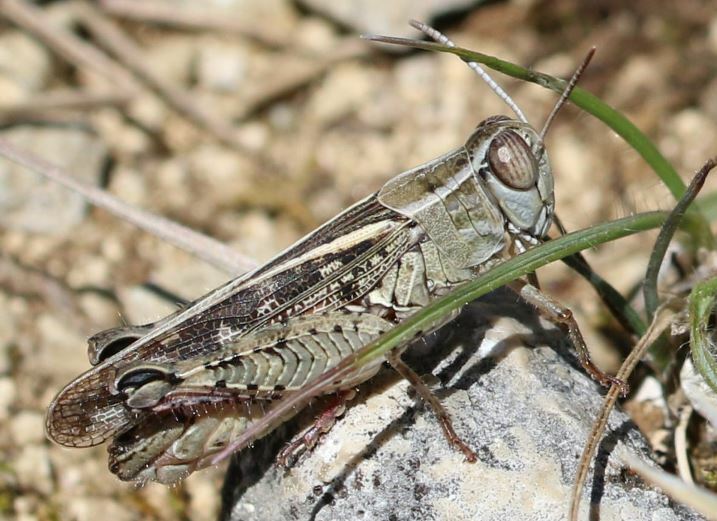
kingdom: Animalia
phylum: Arthropoda
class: Insecta
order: Orthoptera
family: Acrididae
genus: Calliptamus
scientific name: Calliptamus italicus
